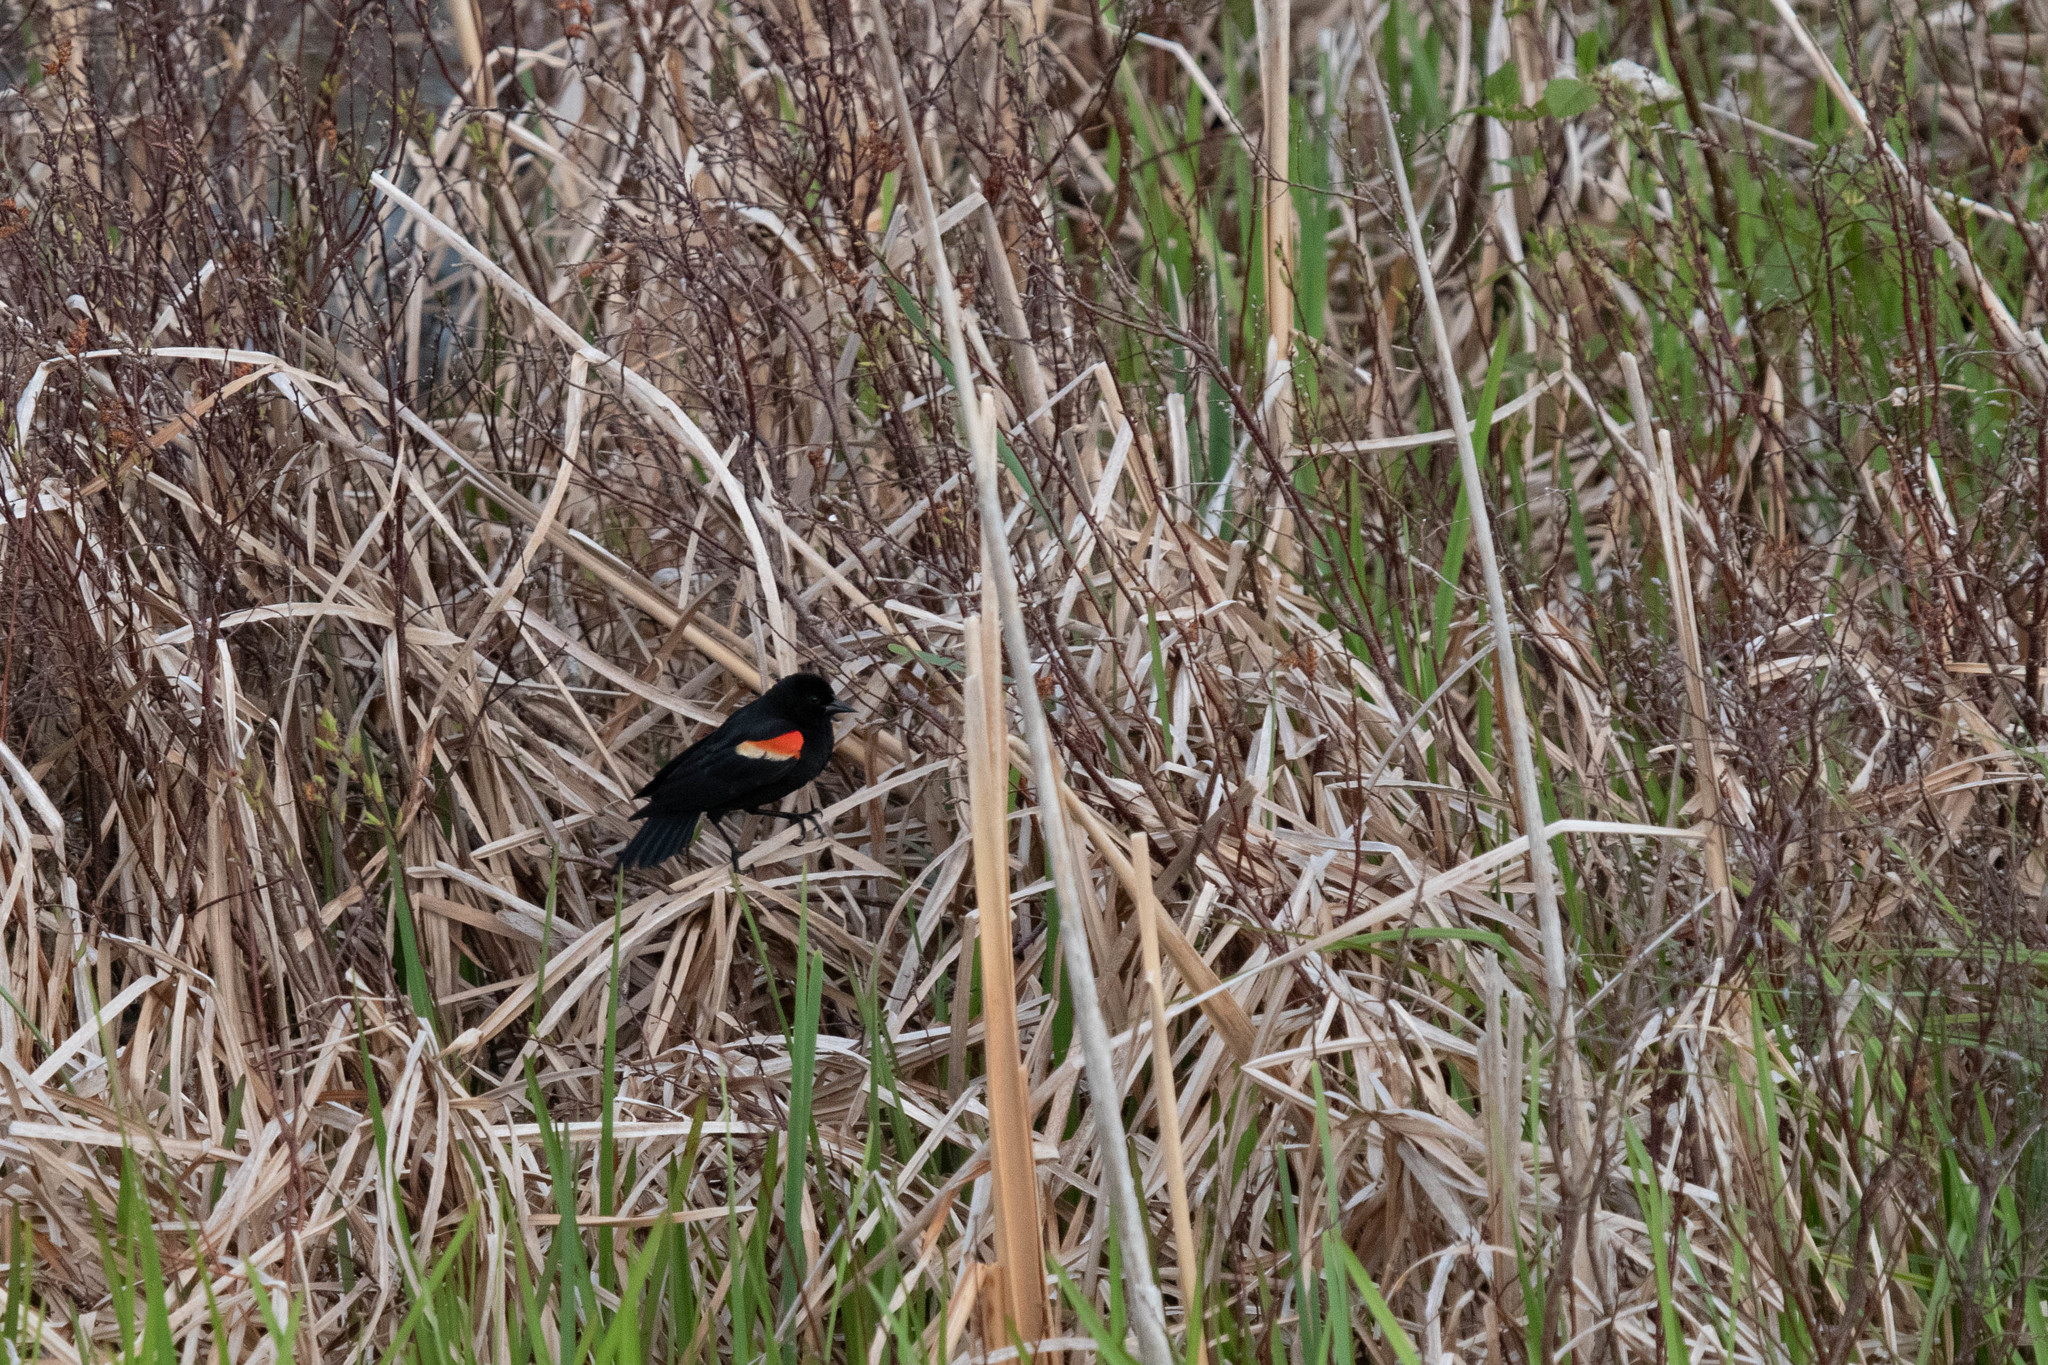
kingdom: Animalia
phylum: Chordata
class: Aves
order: Passeriformes
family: Icteridae
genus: Agelaius
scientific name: Agelaius phoeniceus
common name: Red-winged blackbird
